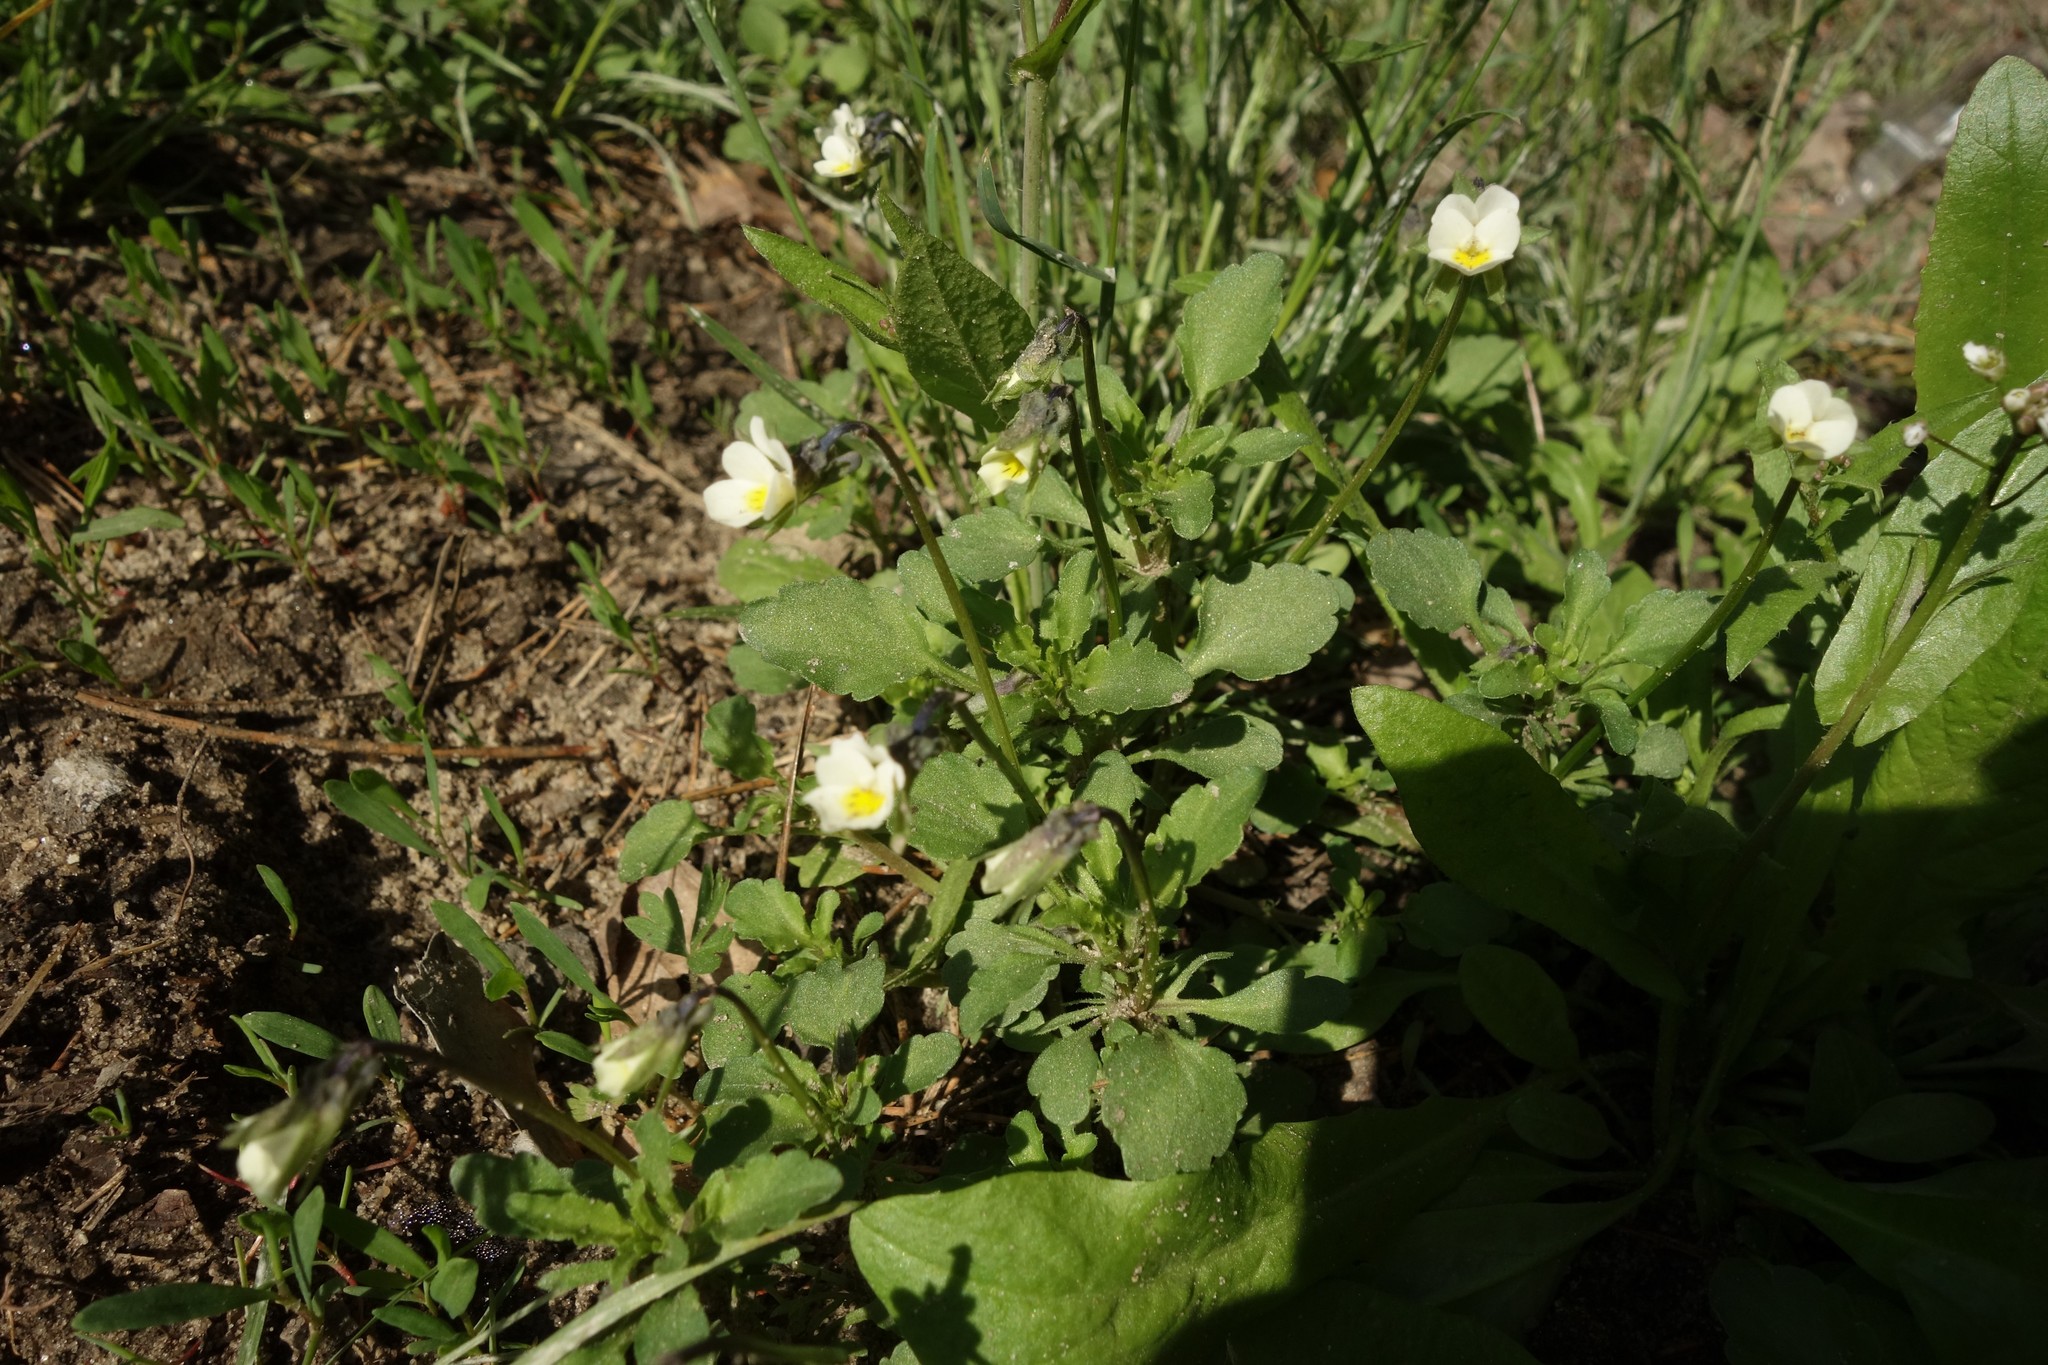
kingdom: Plantae
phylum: Tracheophyta
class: Magnoliopsida
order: Malpighiales
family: Violaceae
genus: Viola
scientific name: Viola arvensis
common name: Field pansy
